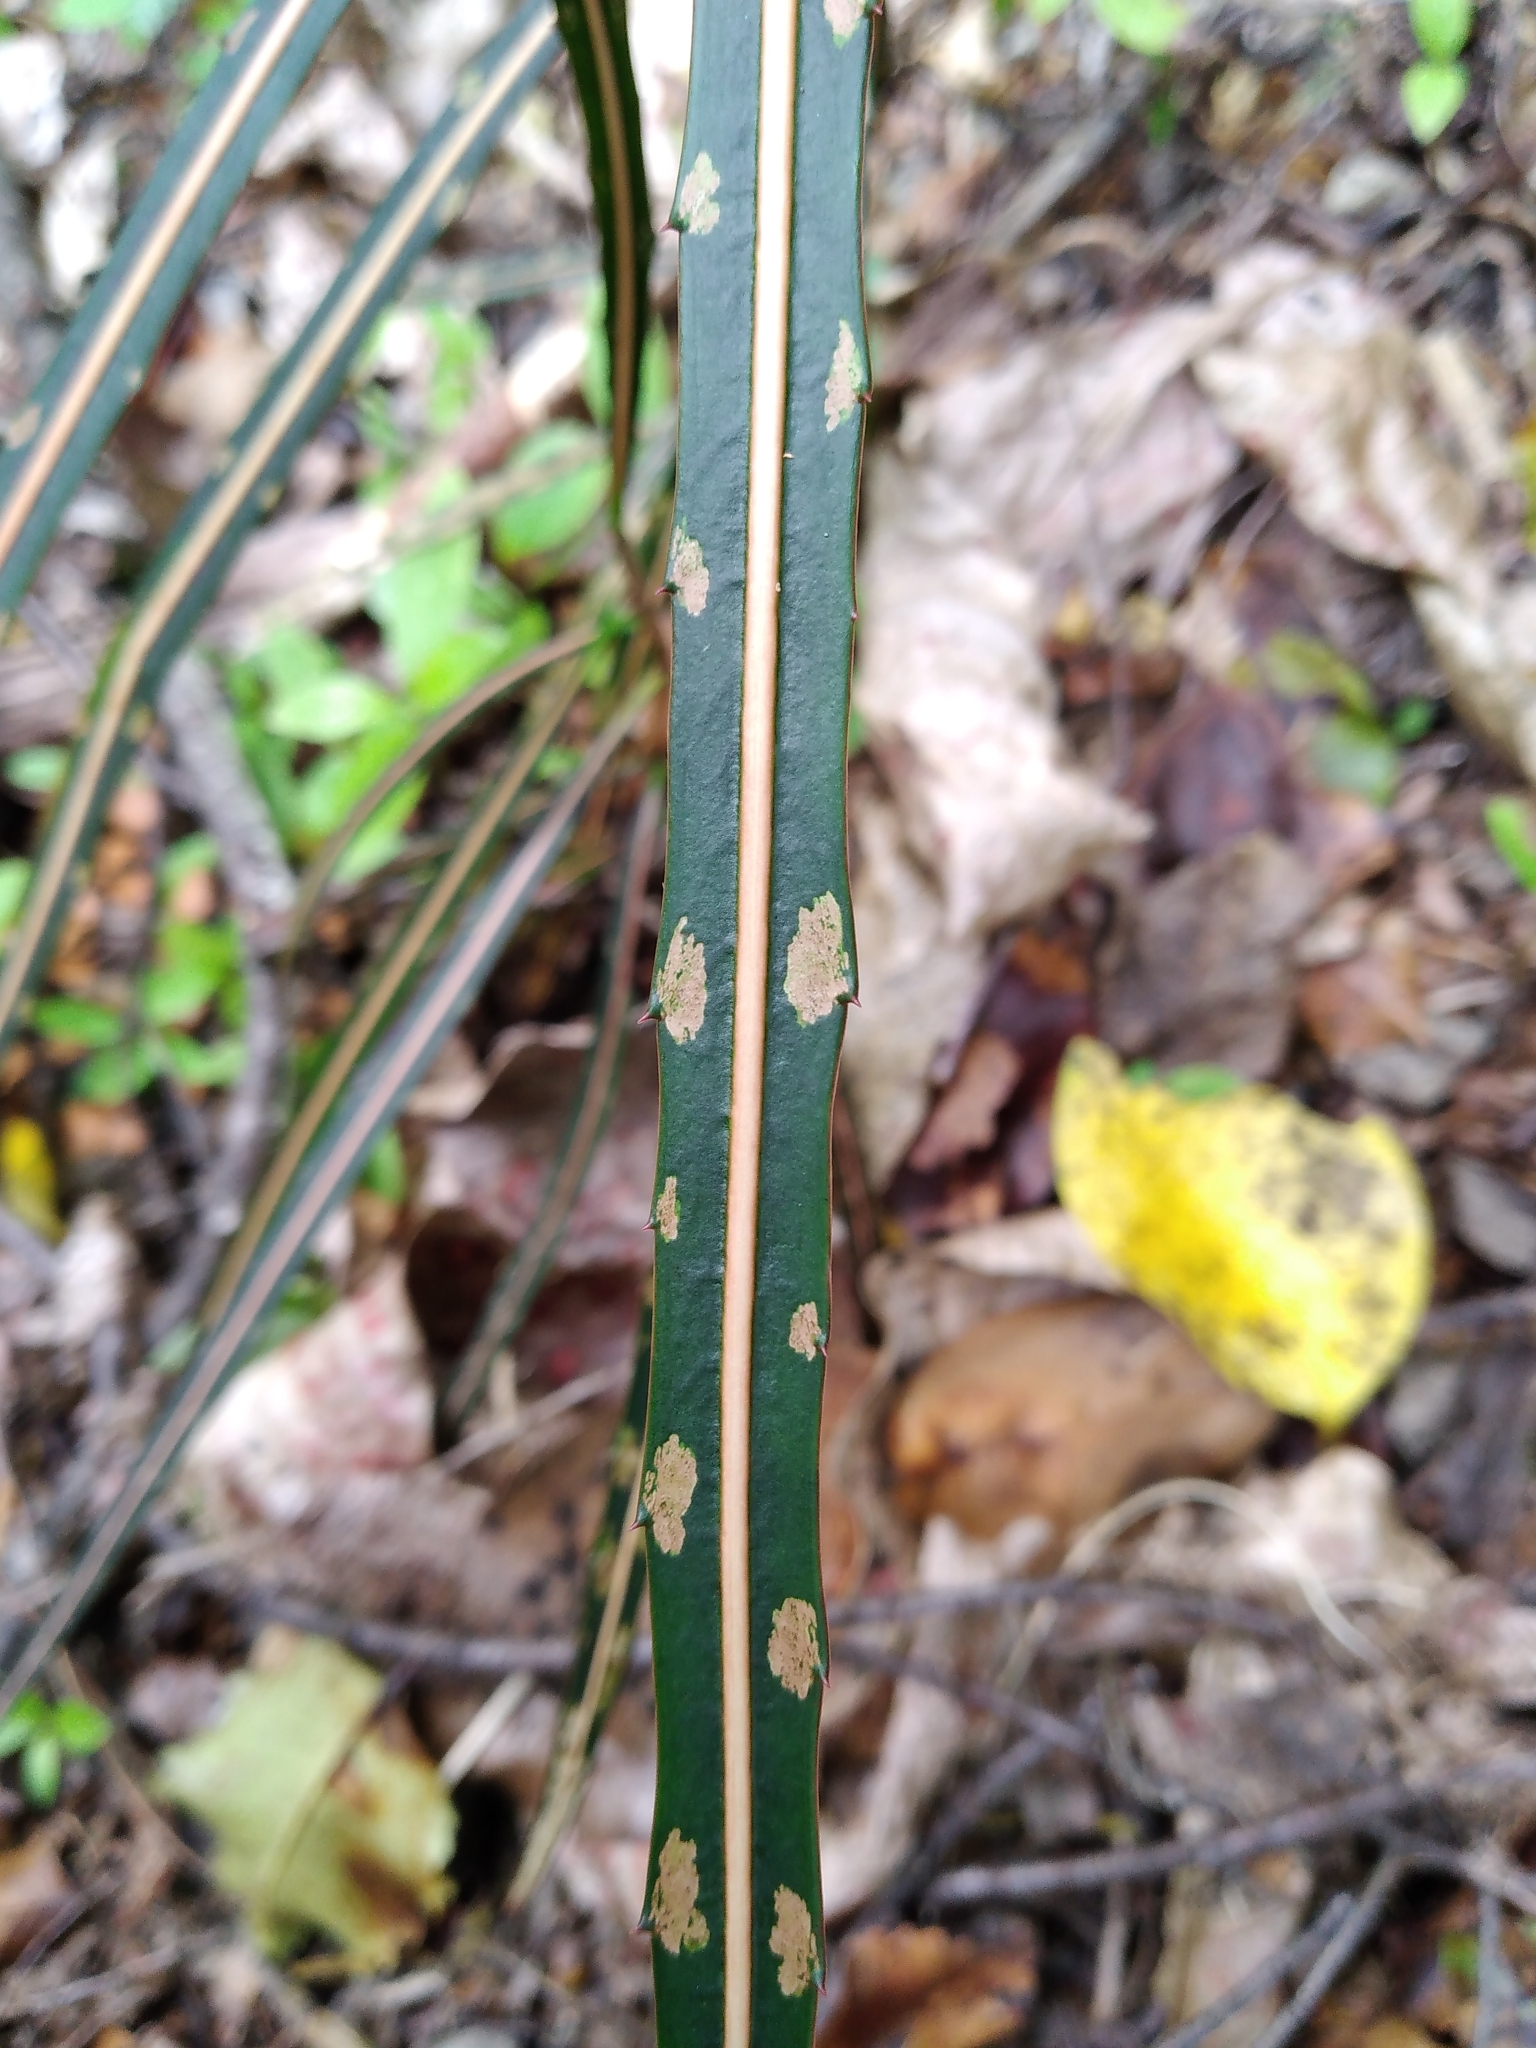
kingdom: Plantae
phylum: Tracheophyta
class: Magnoliopsida
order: Apiales
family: Araliaceae
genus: Pseudopanax
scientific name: Pseudopanax crassifolius
